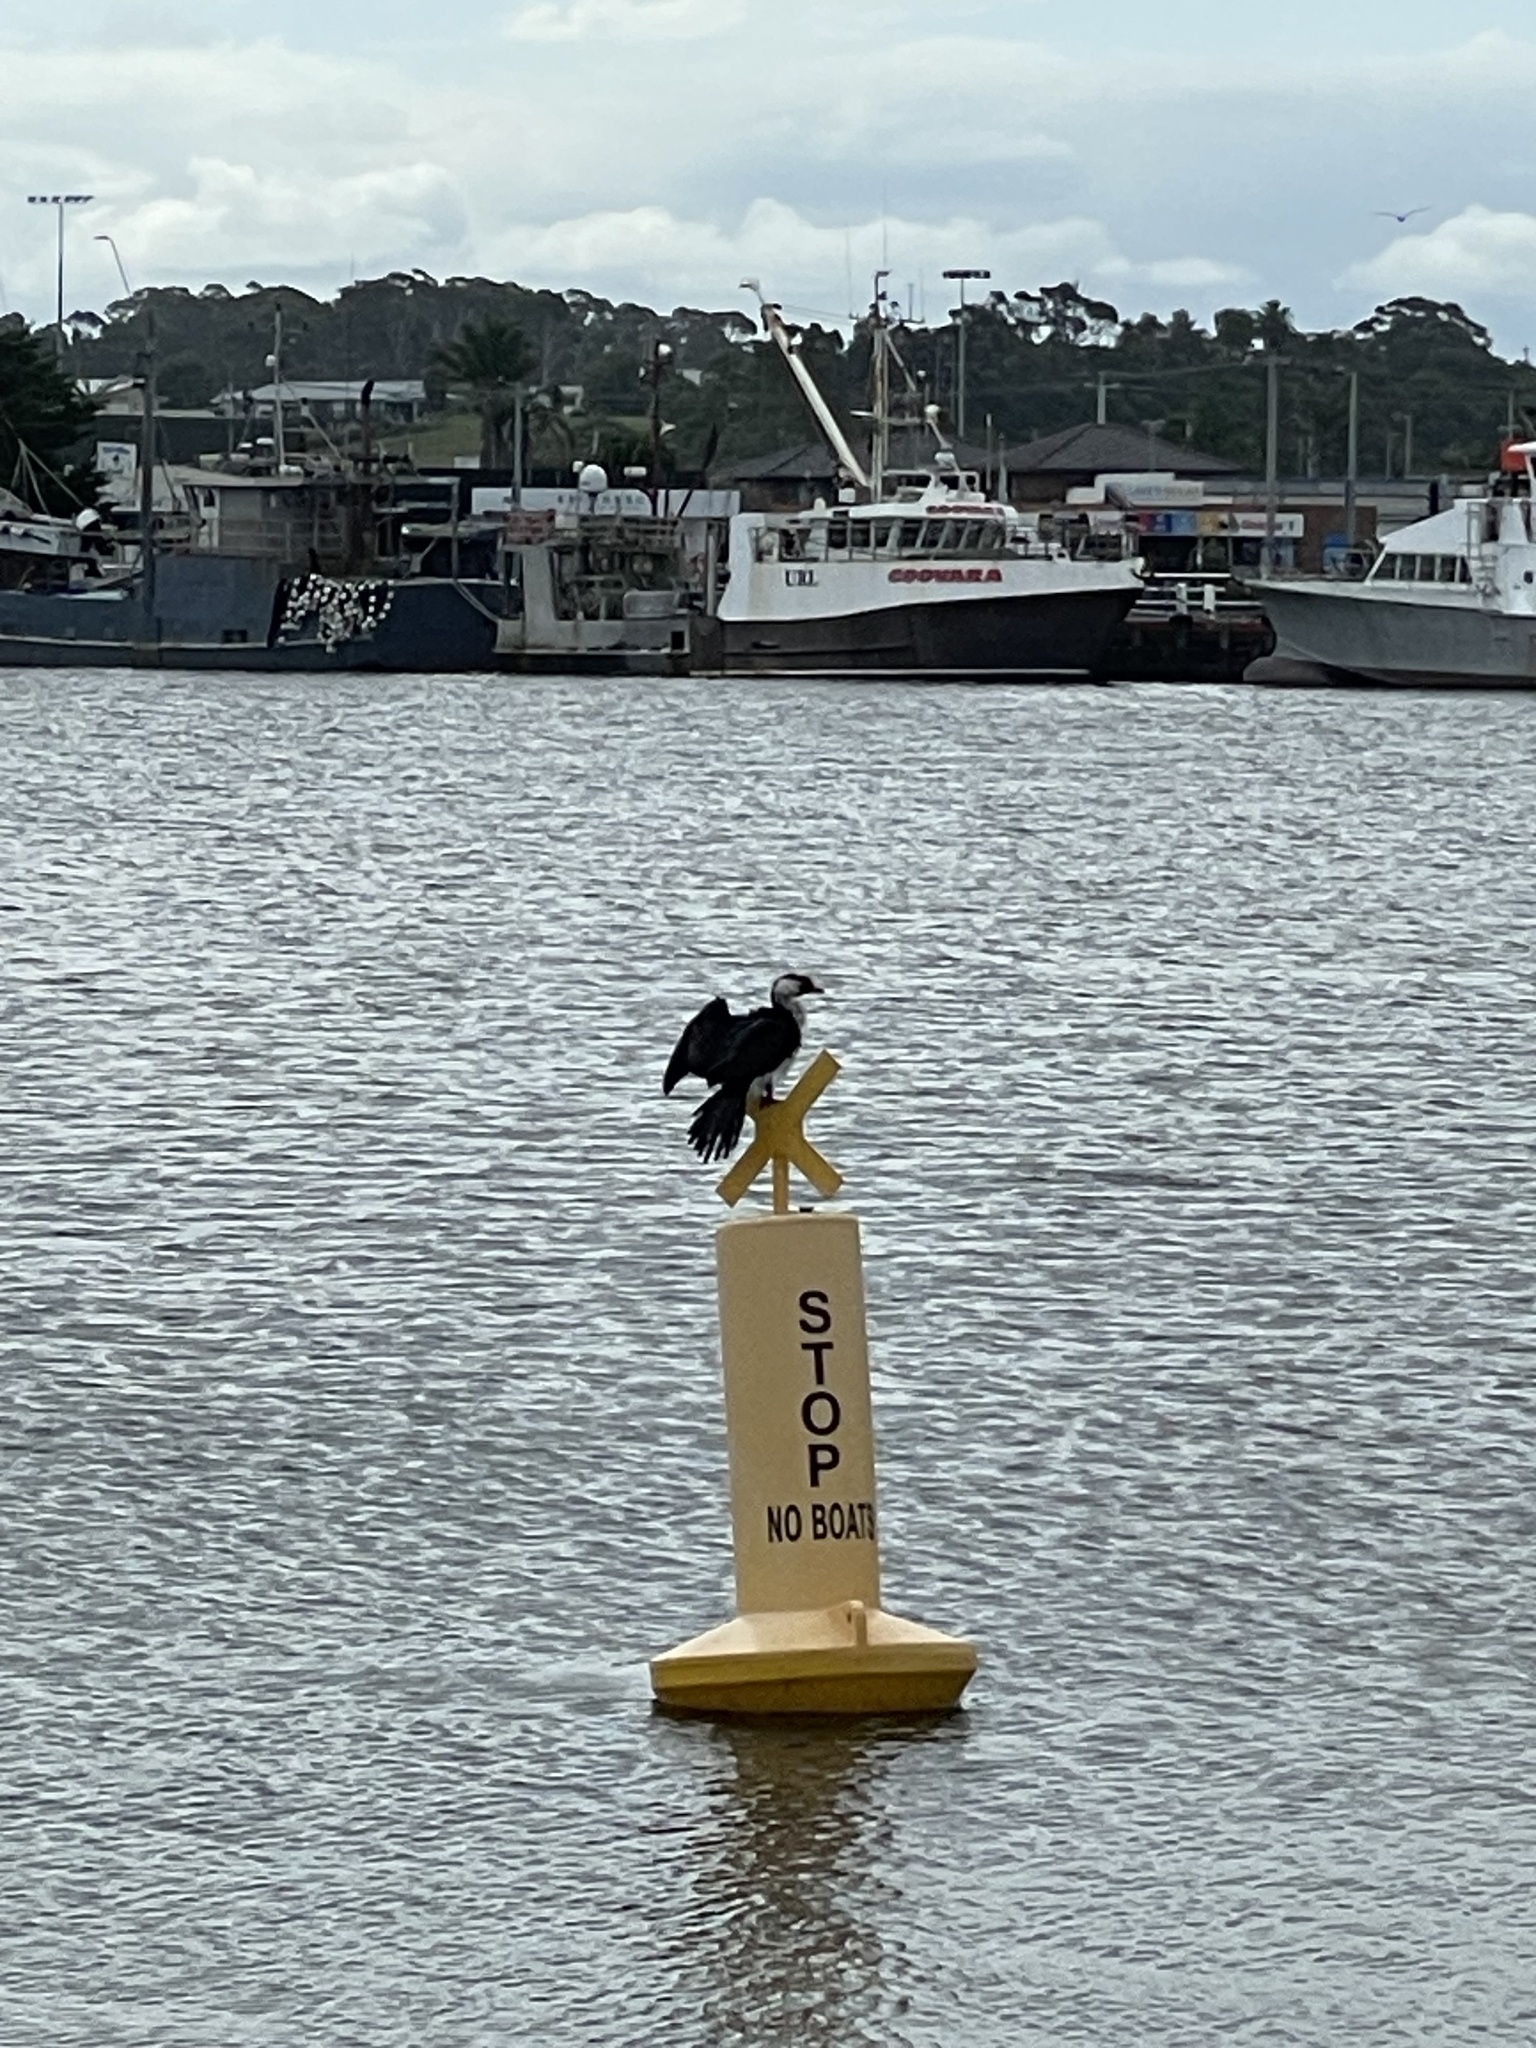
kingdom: Animalia
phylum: Chordata
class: Aves
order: Suliformes
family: Phalacrocoracidae
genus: Microcarbo
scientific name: Microcarbo melanoleucos
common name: Little pied cormorant
